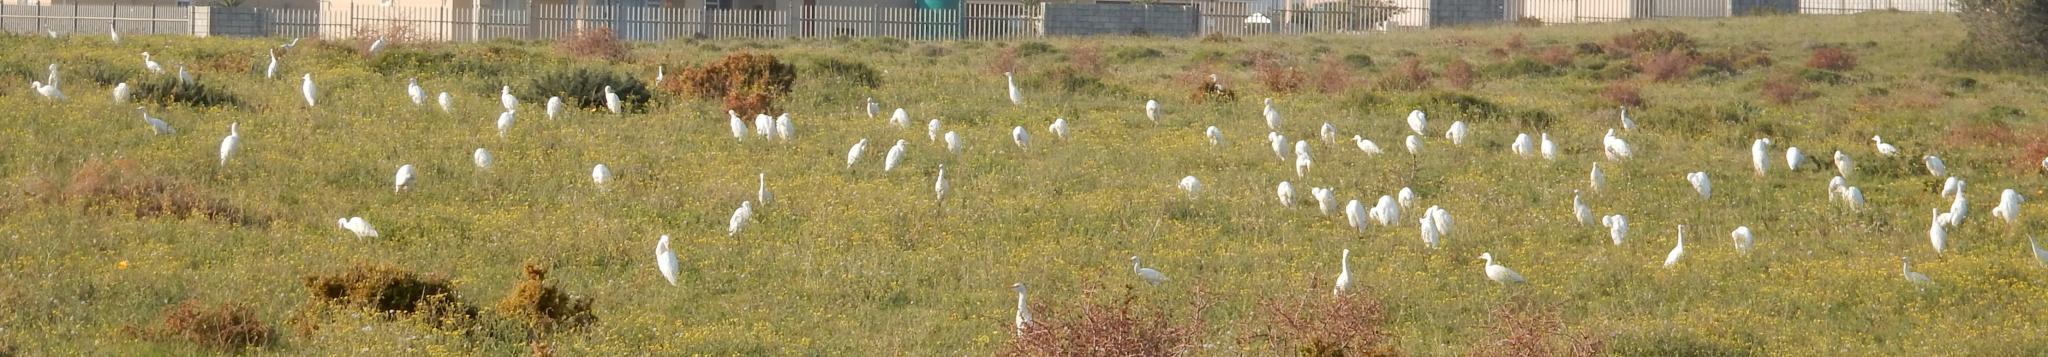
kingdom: Animalia
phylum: Chordata
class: Aves
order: Pelecaniformes
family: Ardeidae
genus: Bubulcus
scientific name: Bubulcus ibis
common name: Cattle egret
